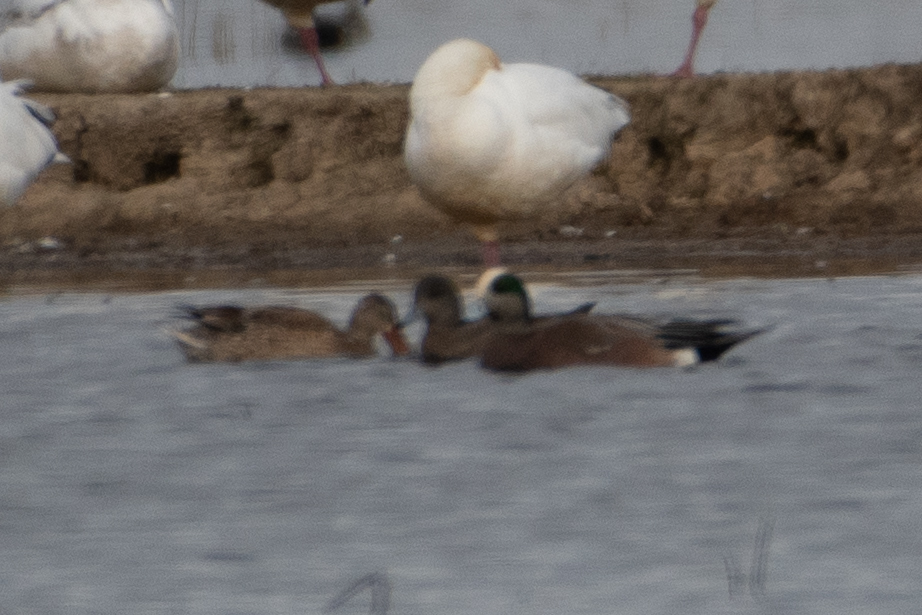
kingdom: Animalia
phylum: Chordata
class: Aves
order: Anseriformes
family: Anatidae
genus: Mareca
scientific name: Mareca americana
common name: American wigeon
